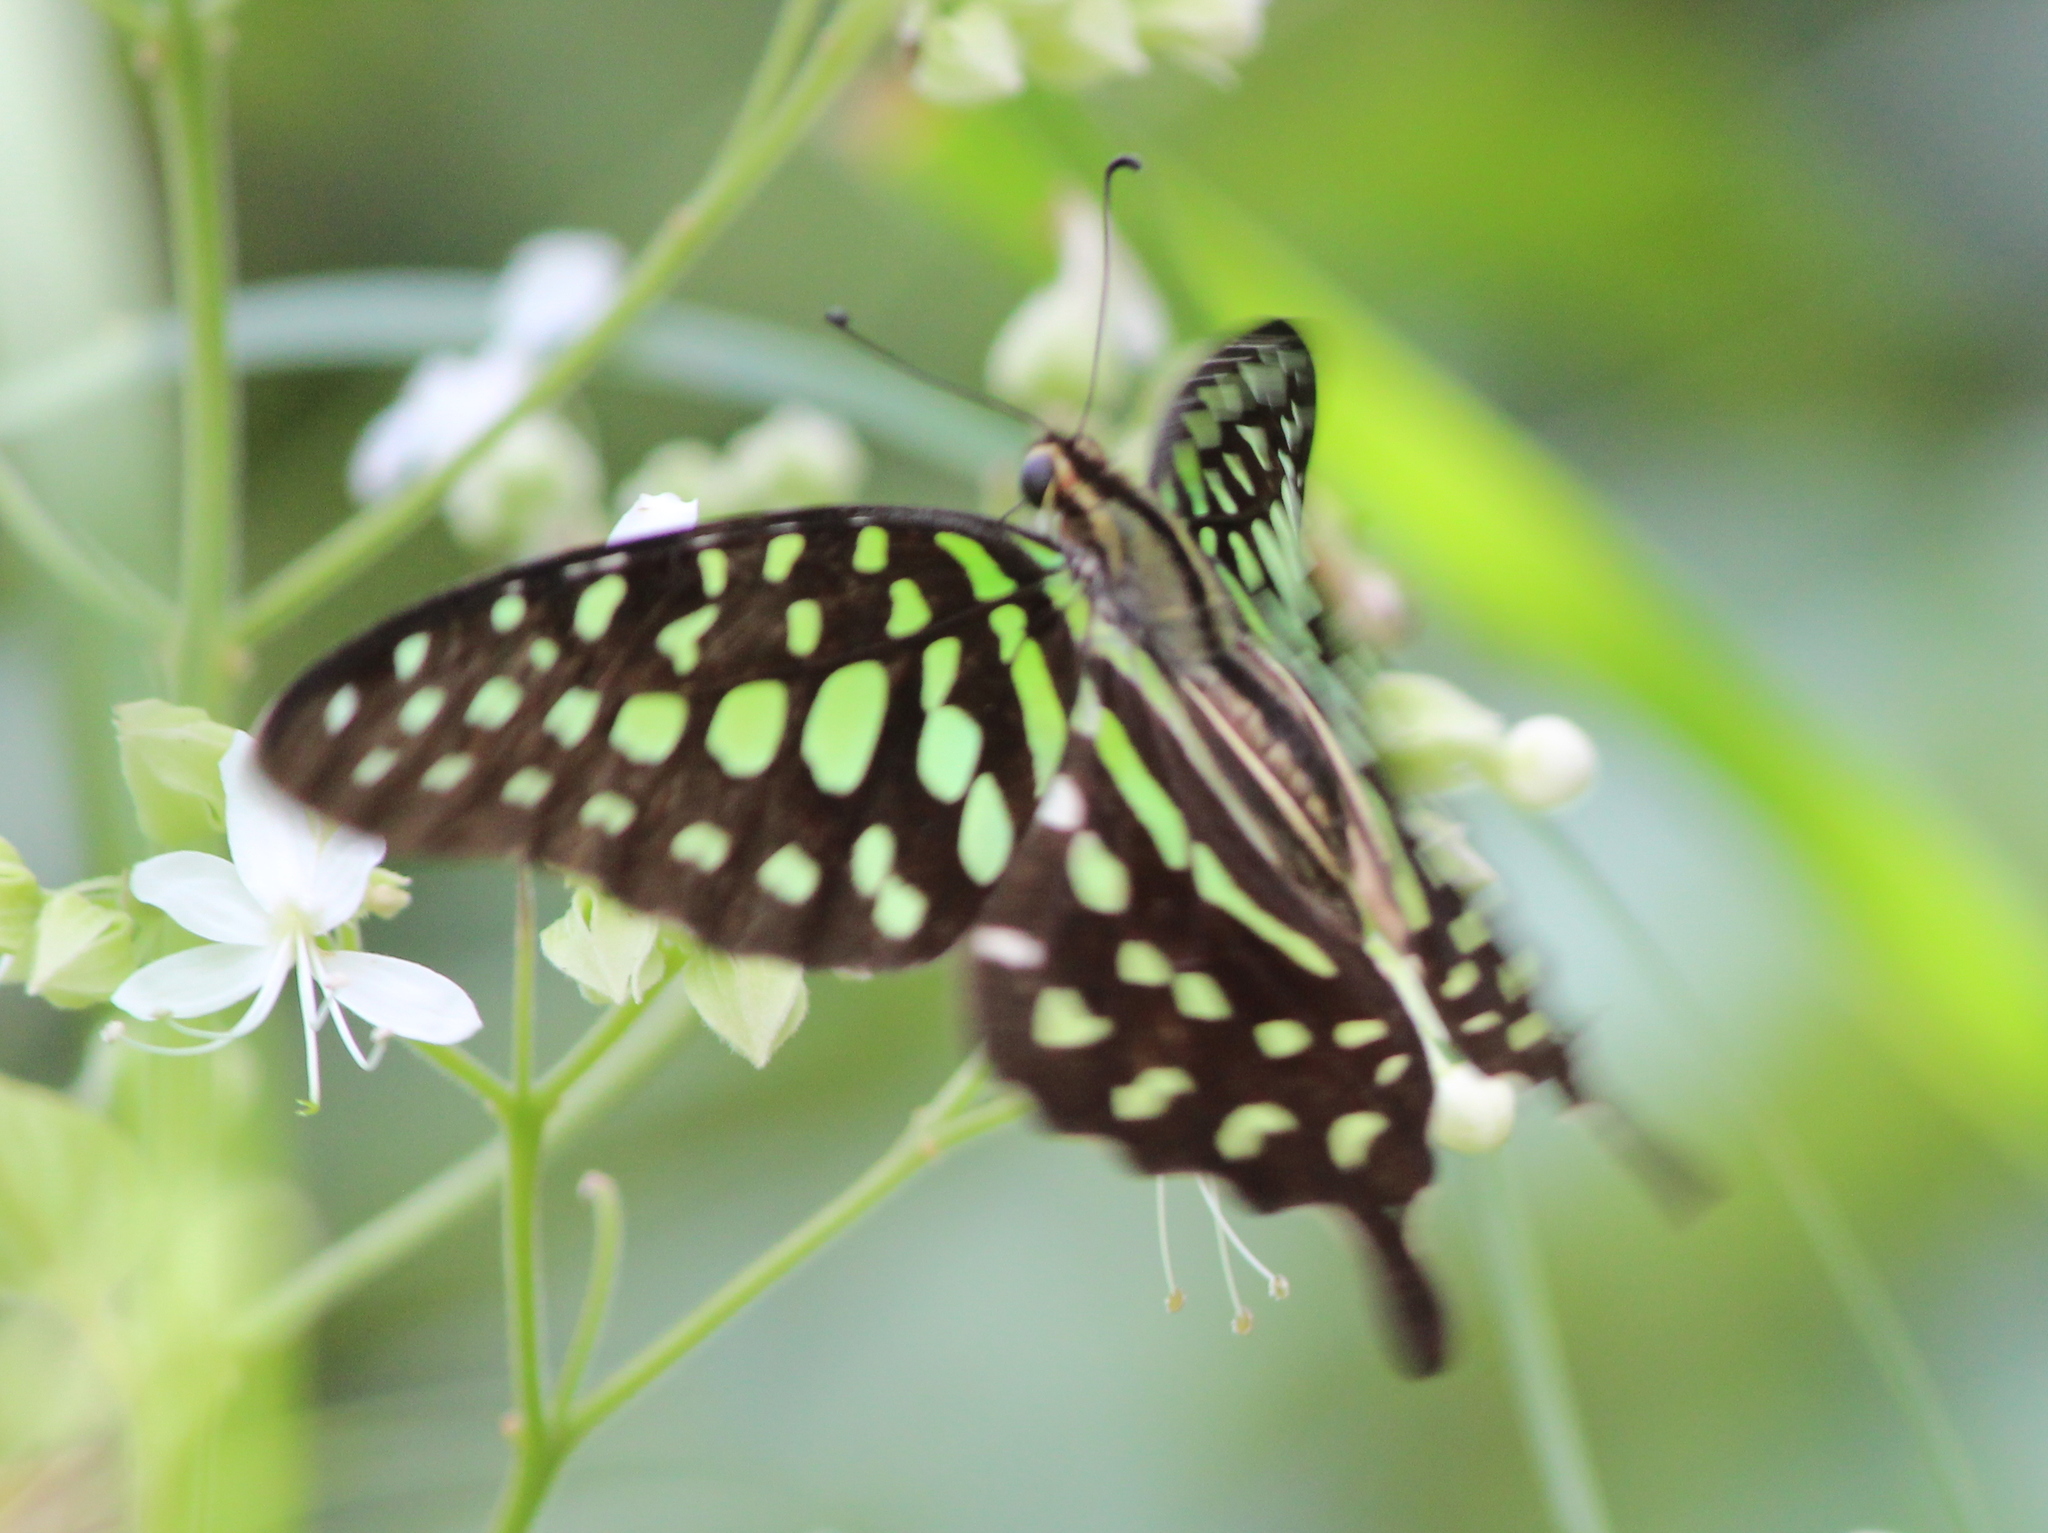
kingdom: Animalia
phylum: Arthropoda
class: Insecta
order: Lepidoptera
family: Papilionidae
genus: Graphium
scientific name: Graphium agamemnon
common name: Tailed jay
